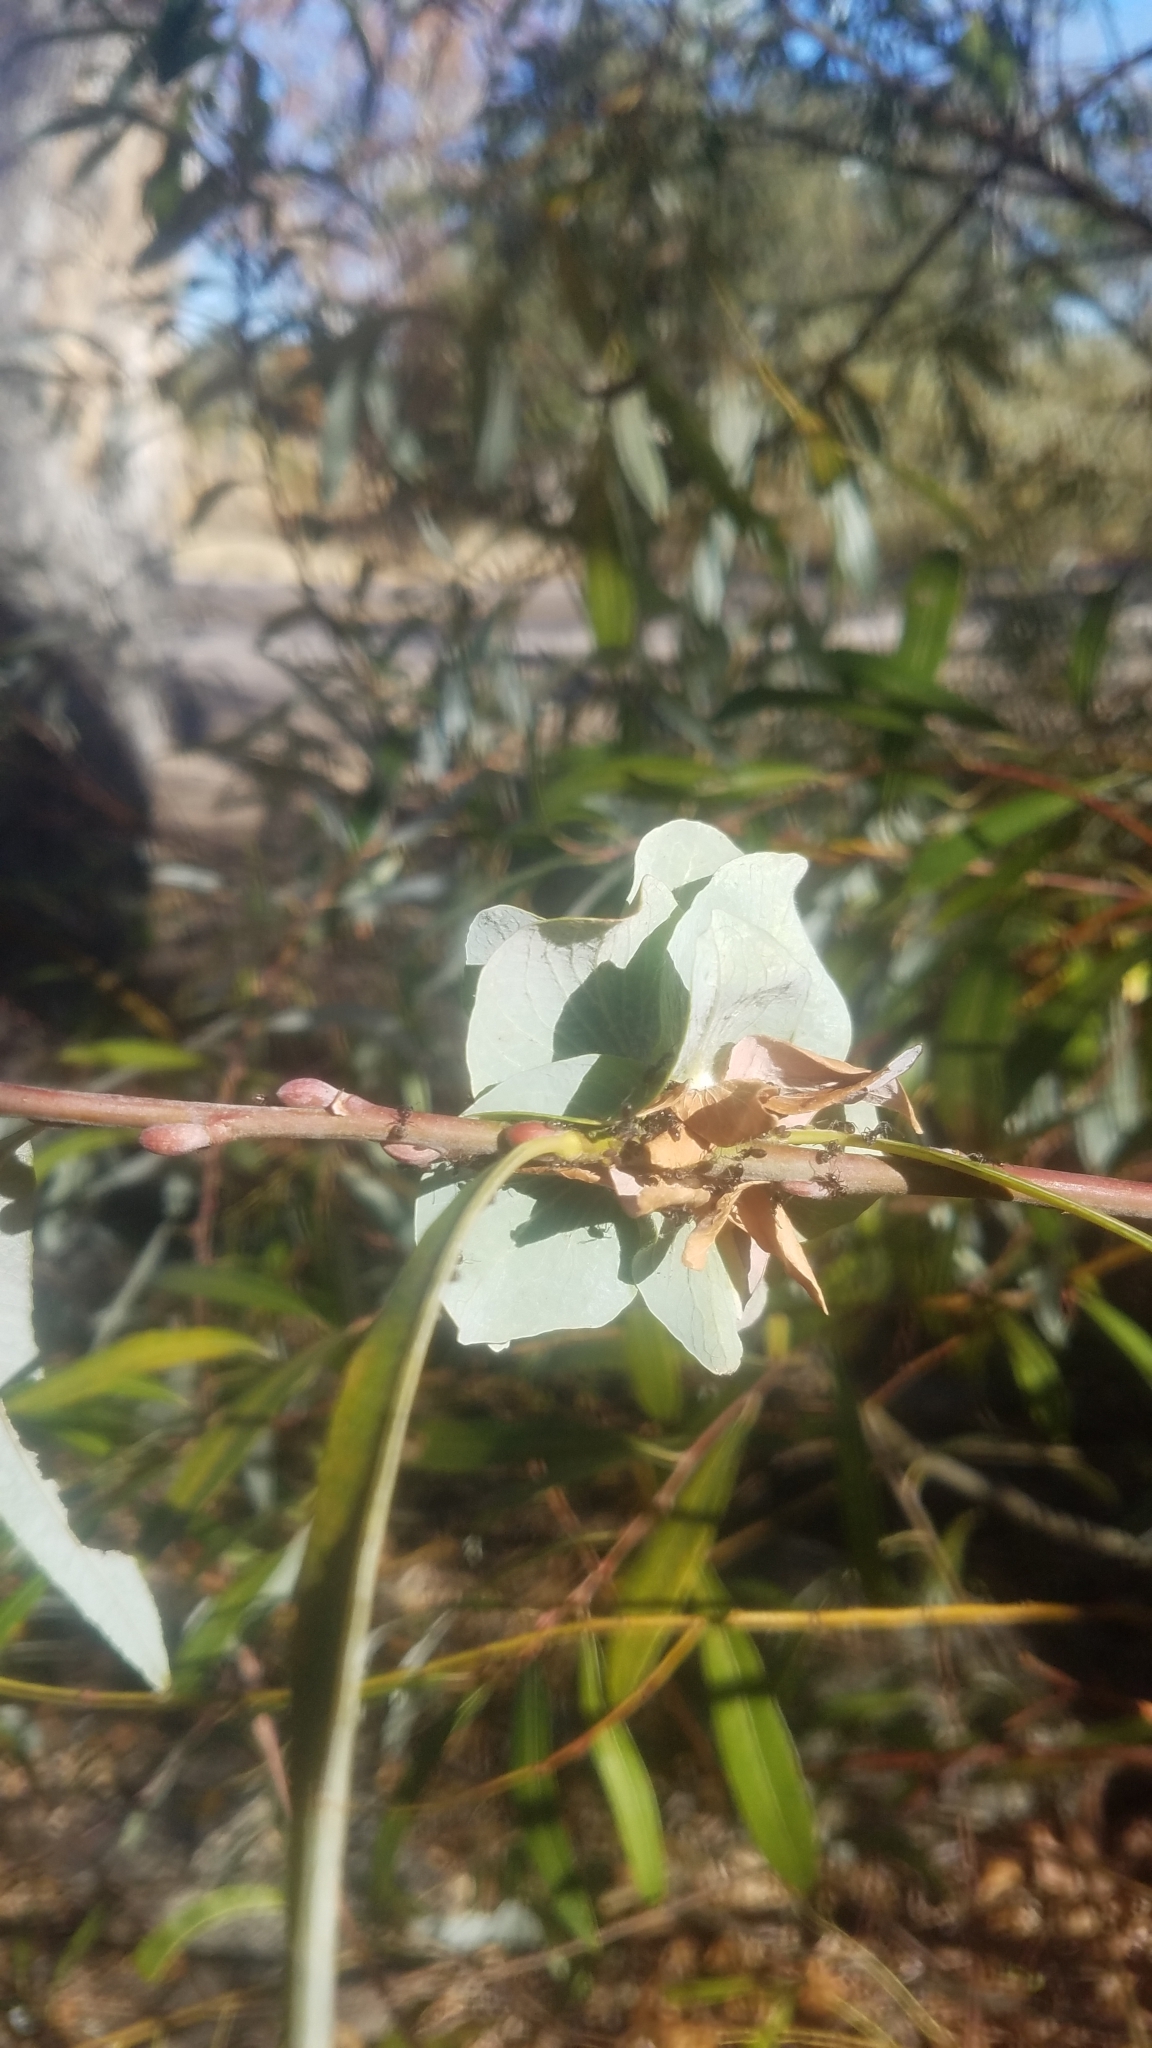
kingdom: Animalia
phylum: Arthropoda
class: Insecta
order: Hymenoptera
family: Formicidae
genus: Liometopum
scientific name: Liometopum
